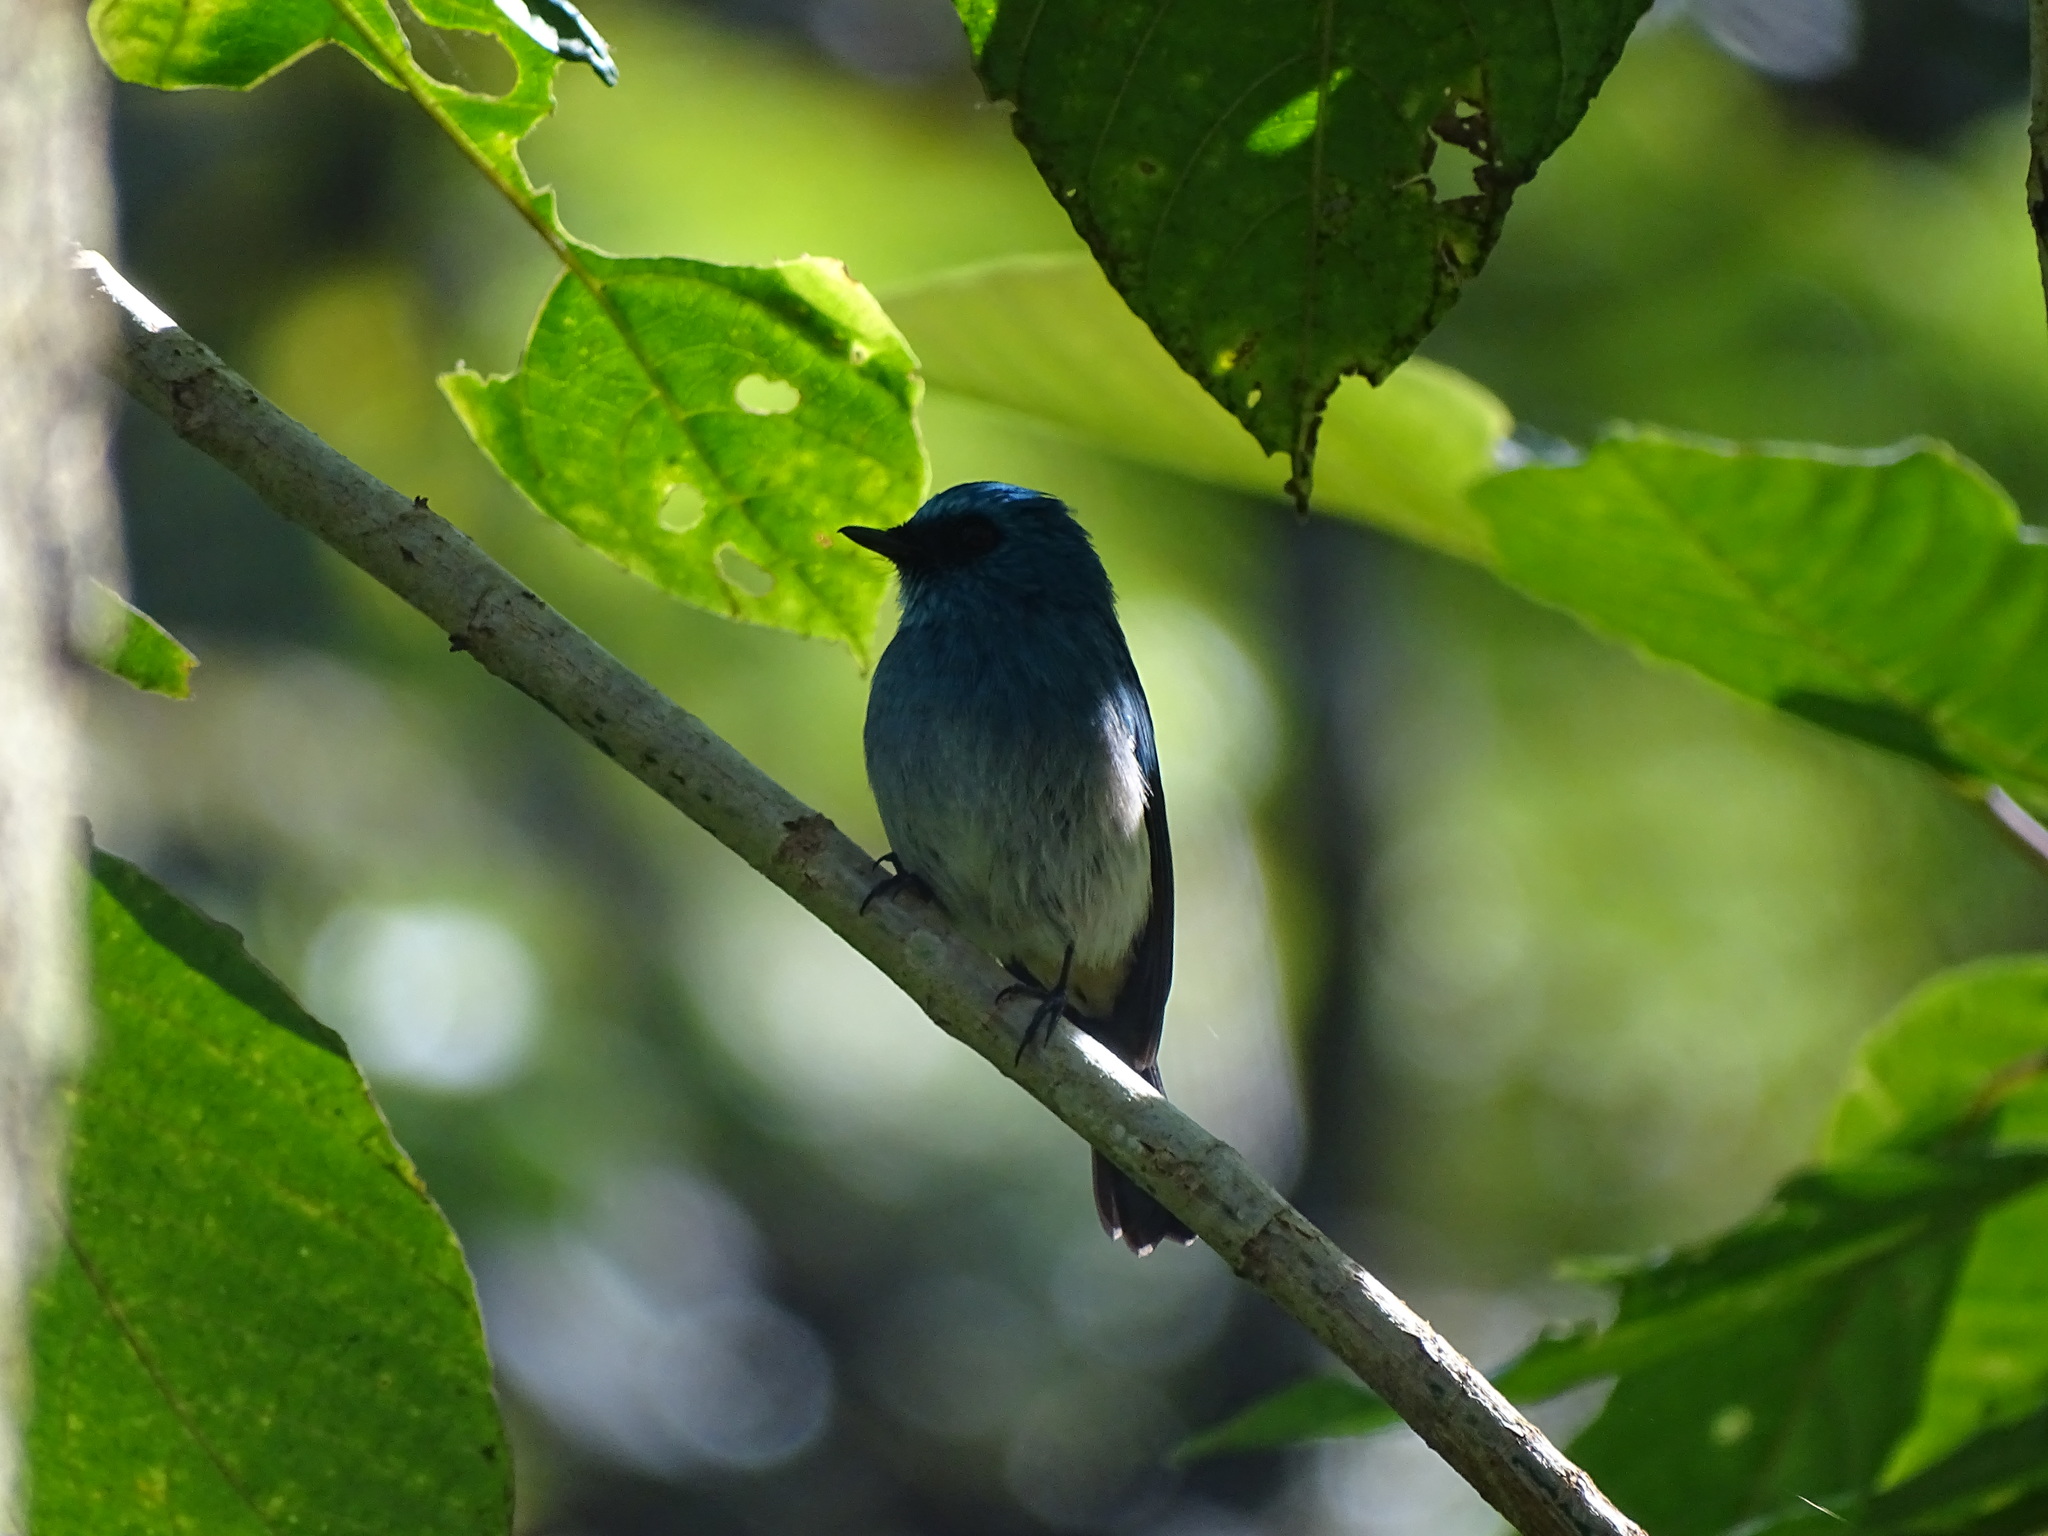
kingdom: Animalia
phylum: Chordata
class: Aves
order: Passeriformes
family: Muscicapidae
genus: Eumyias
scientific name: Eumyias indigo
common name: Indigo flycatcher
